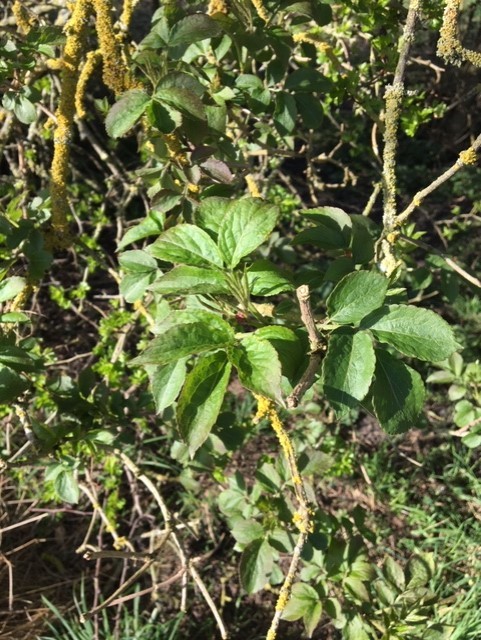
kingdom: Plantae
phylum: Tracheophyta
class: Magnoliopsida
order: Dipsacales
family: Viburnaceae
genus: Sambucus
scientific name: Sambucus nigra
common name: Elder
